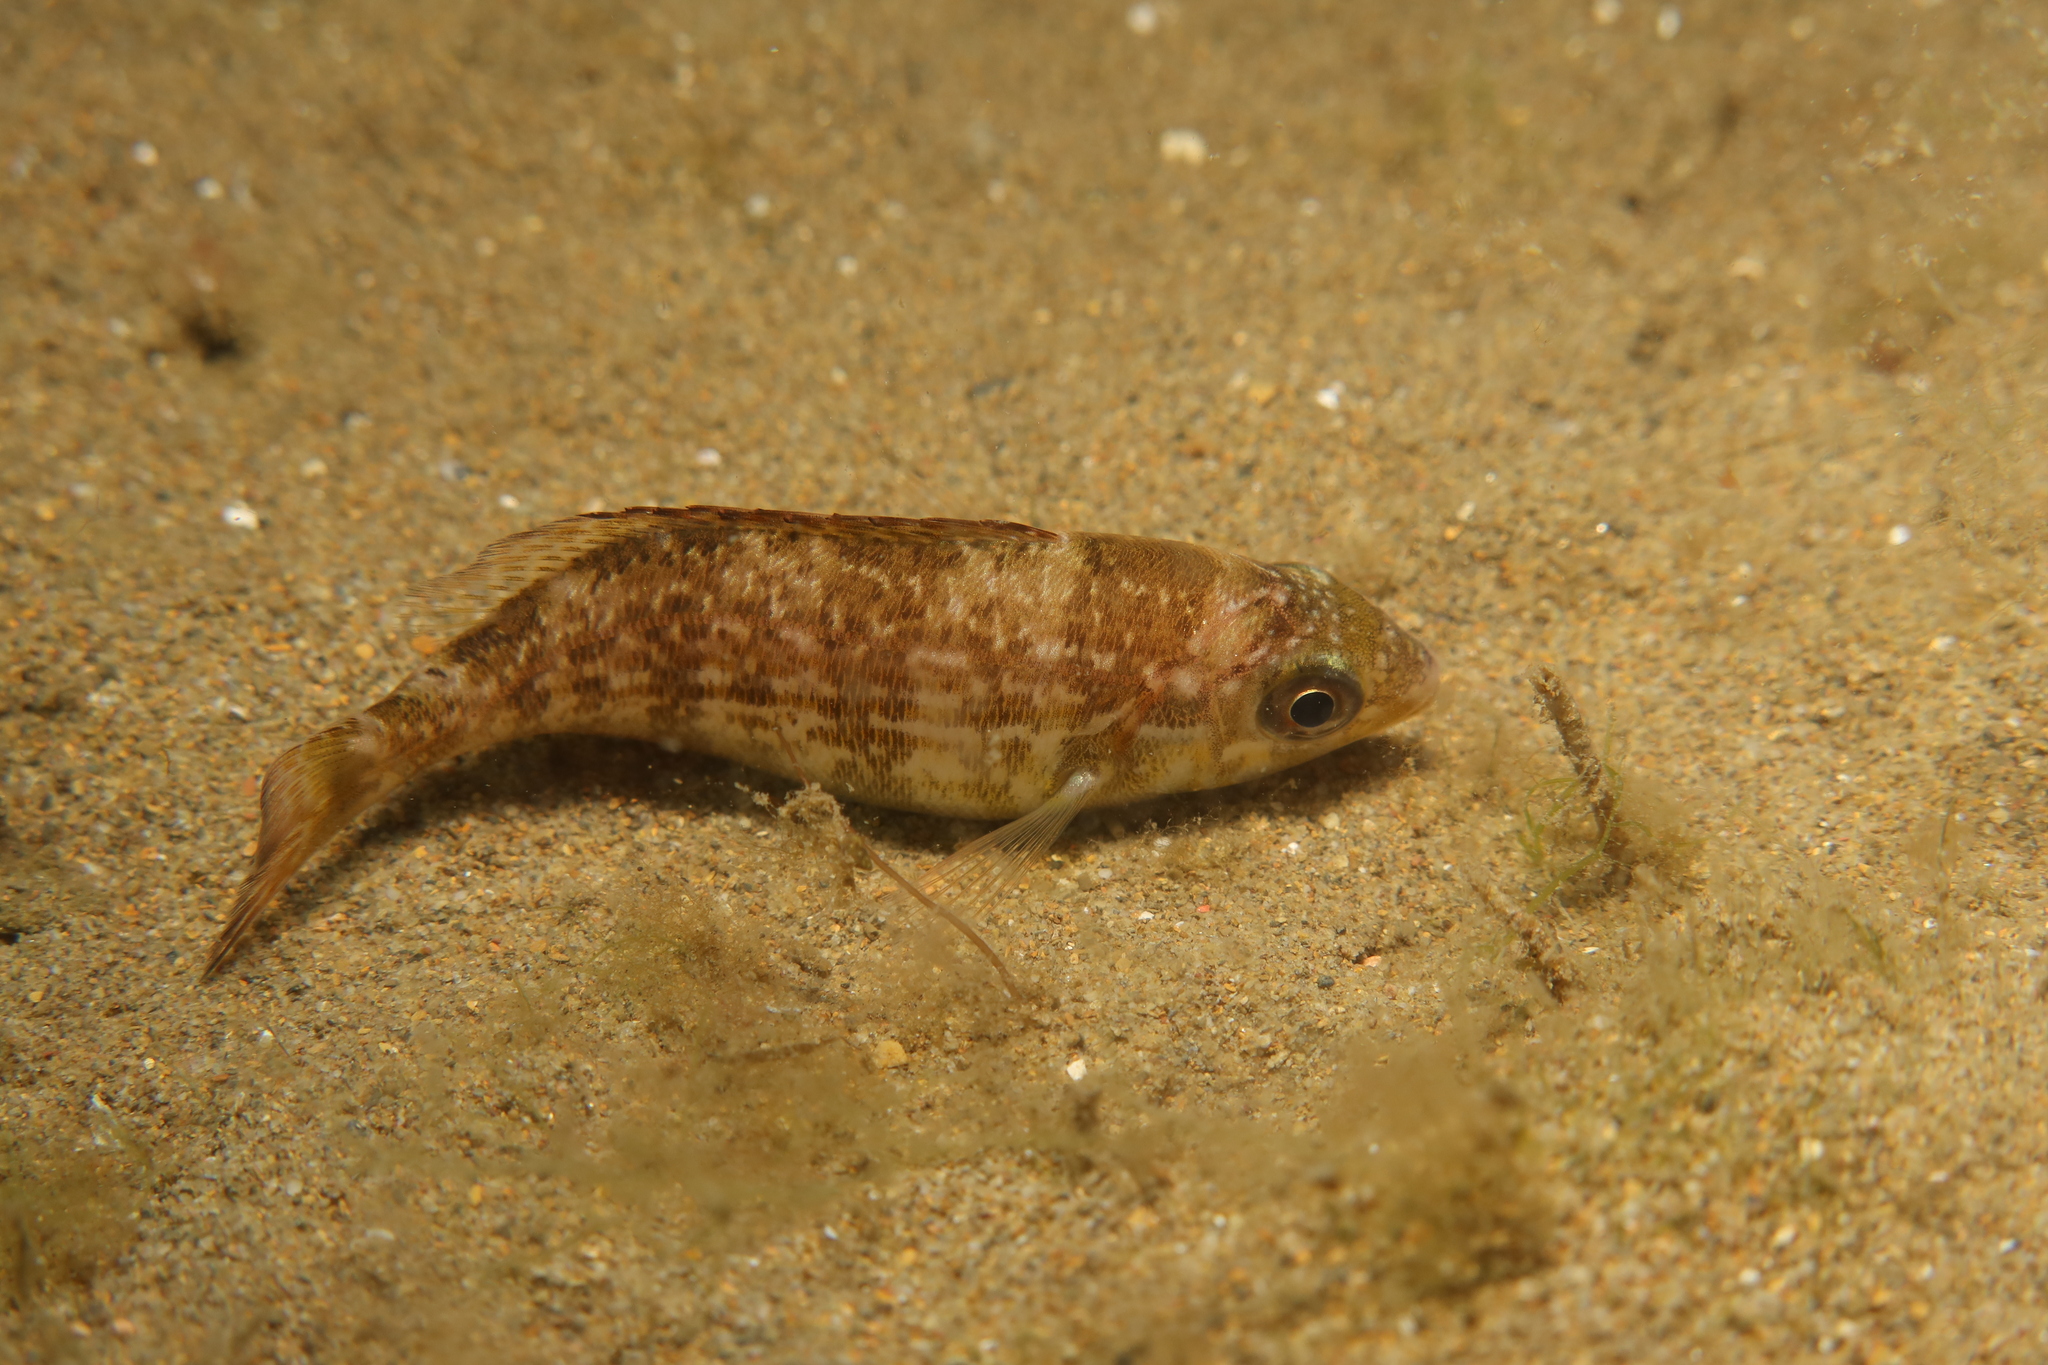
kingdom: Animalia
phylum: Chordata
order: Perciformes
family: Sparidae
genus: Spondyliosoma
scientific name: Spondyliosoma cantharus
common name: Black seabream
